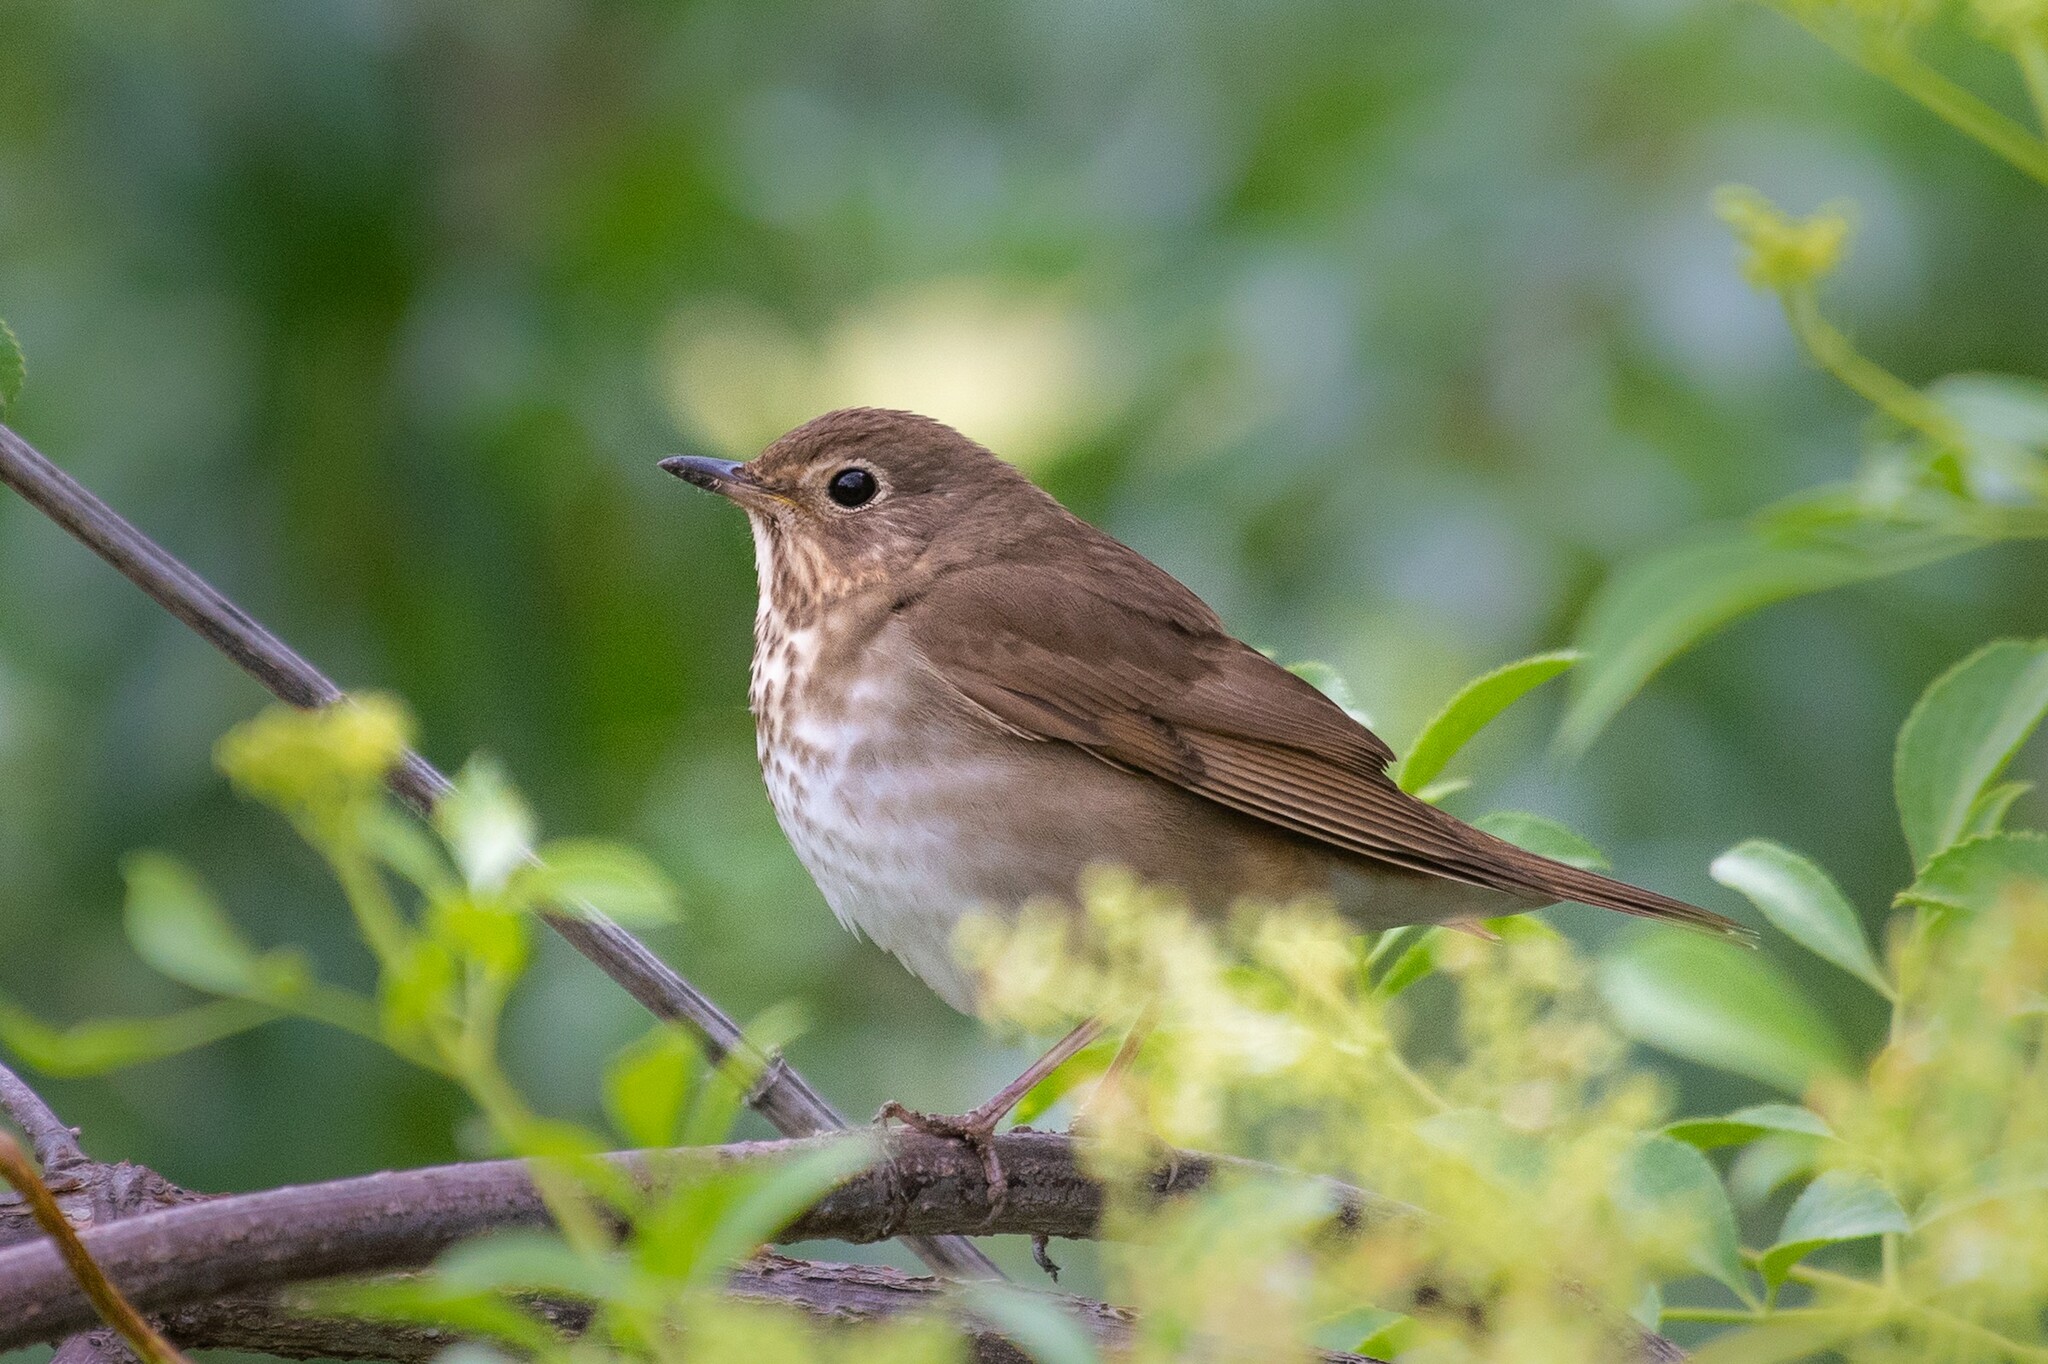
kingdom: Animalia
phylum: Chordata
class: Aves
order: Passeriformes
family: Turdidae
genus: Catharus
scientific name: Catharus ustulatus
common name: Swainson's thrush
